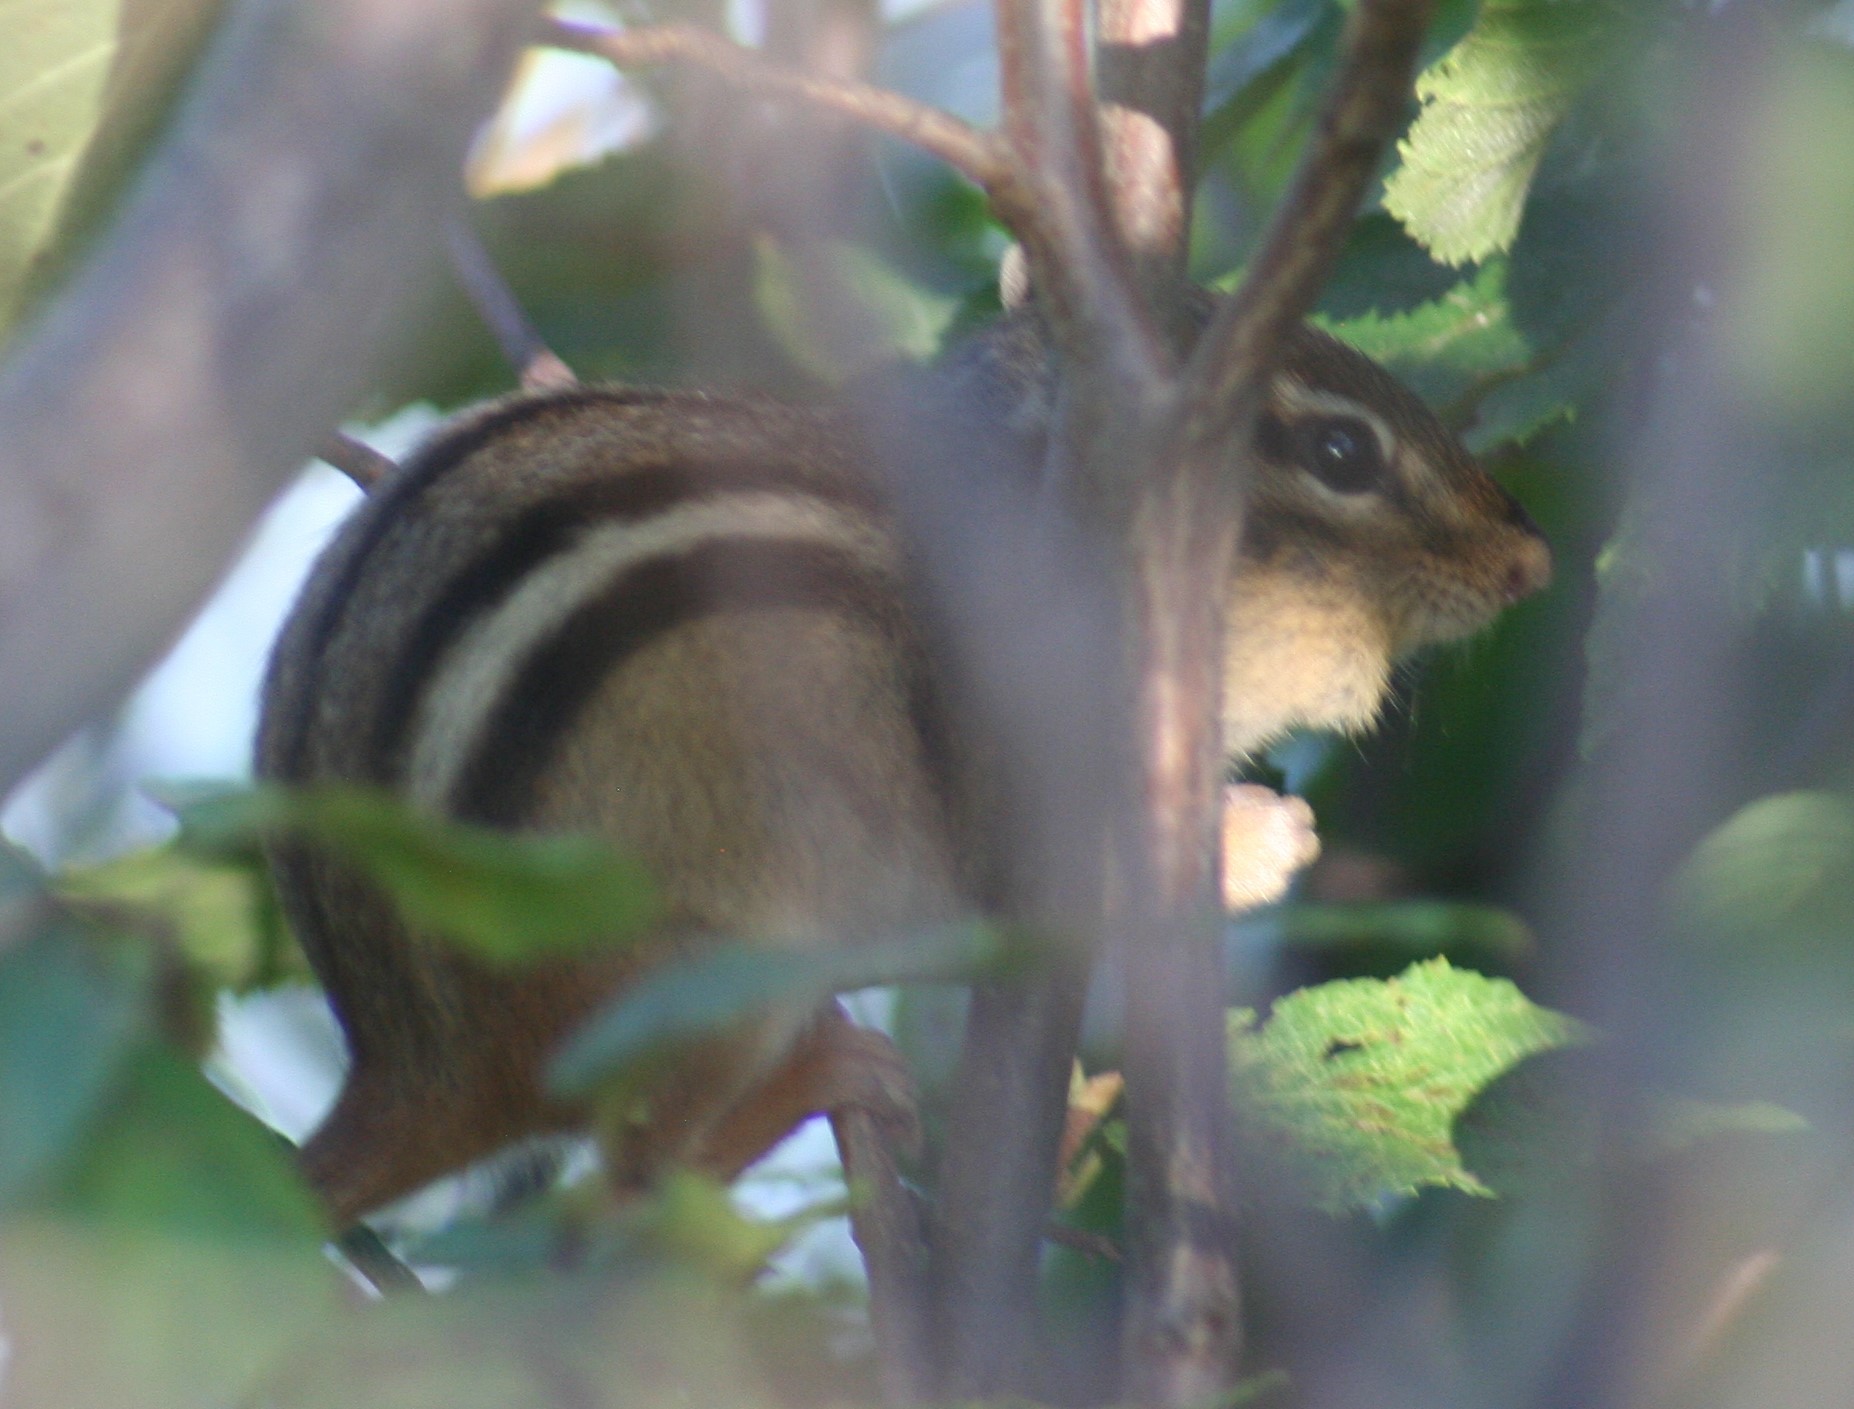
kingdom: Animalia
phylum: Chordata
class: Mammalia
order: Rodentia
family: Sciuridae
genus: Tamias
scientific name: Tamias striatus
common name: Eastern chipmunk
